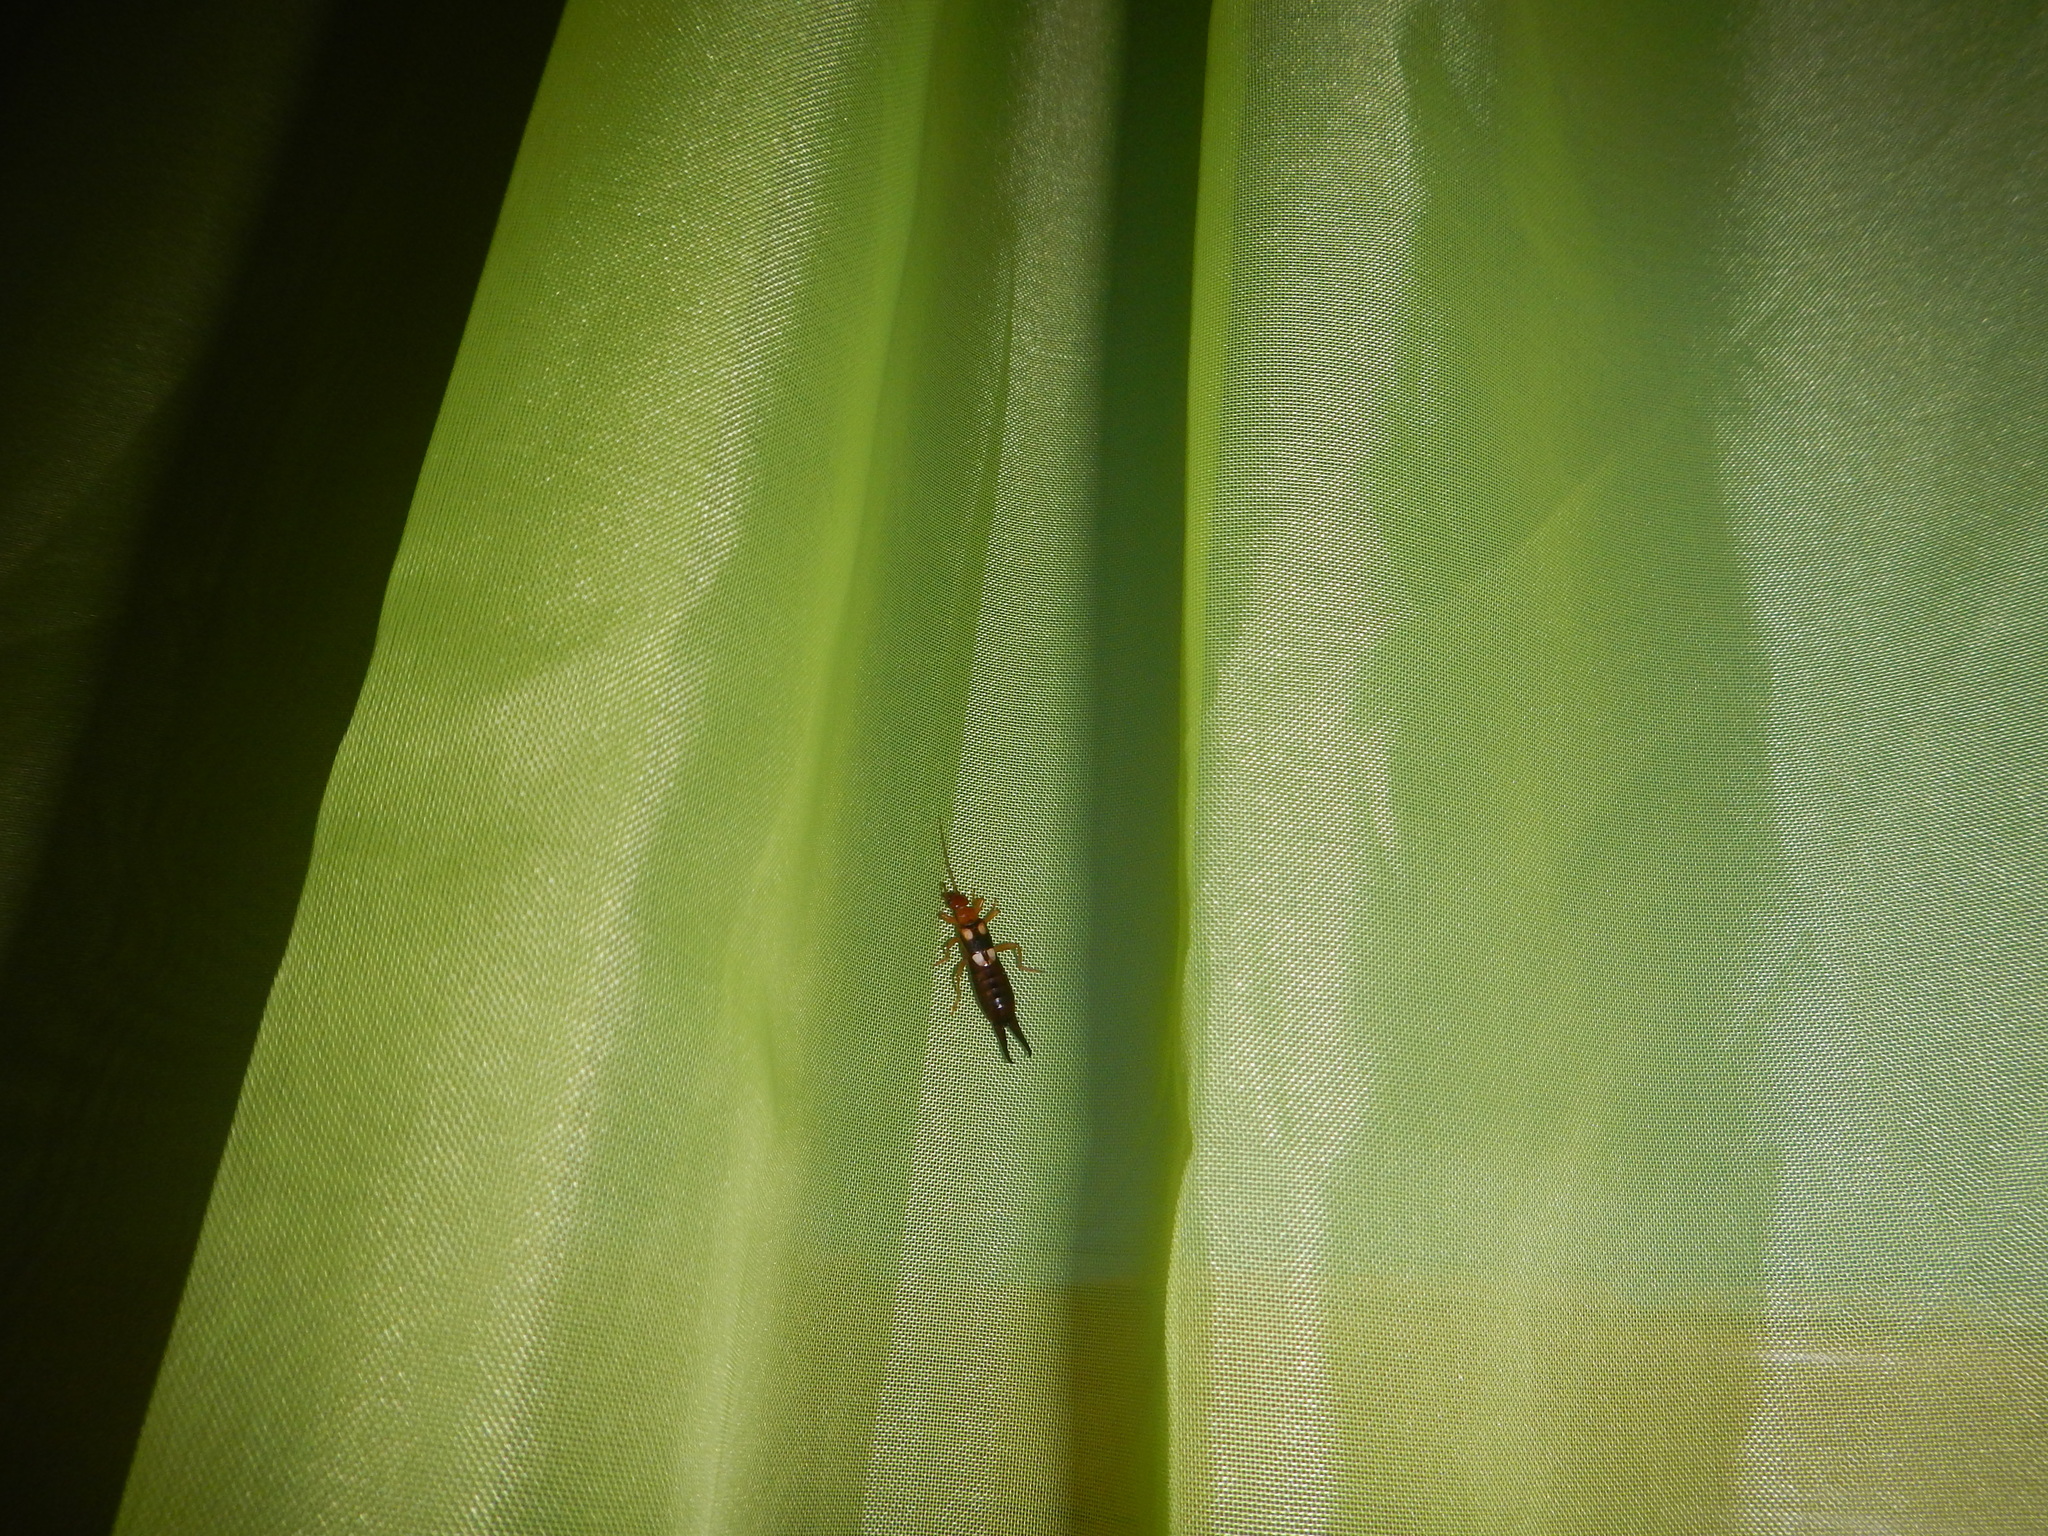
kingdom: Animalia
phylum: Arthropoda
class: Insecta
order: Dermaptera
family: Forficulidae
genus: Forficula
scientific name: Forficula smyrnensis
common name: Smyrna earwig
